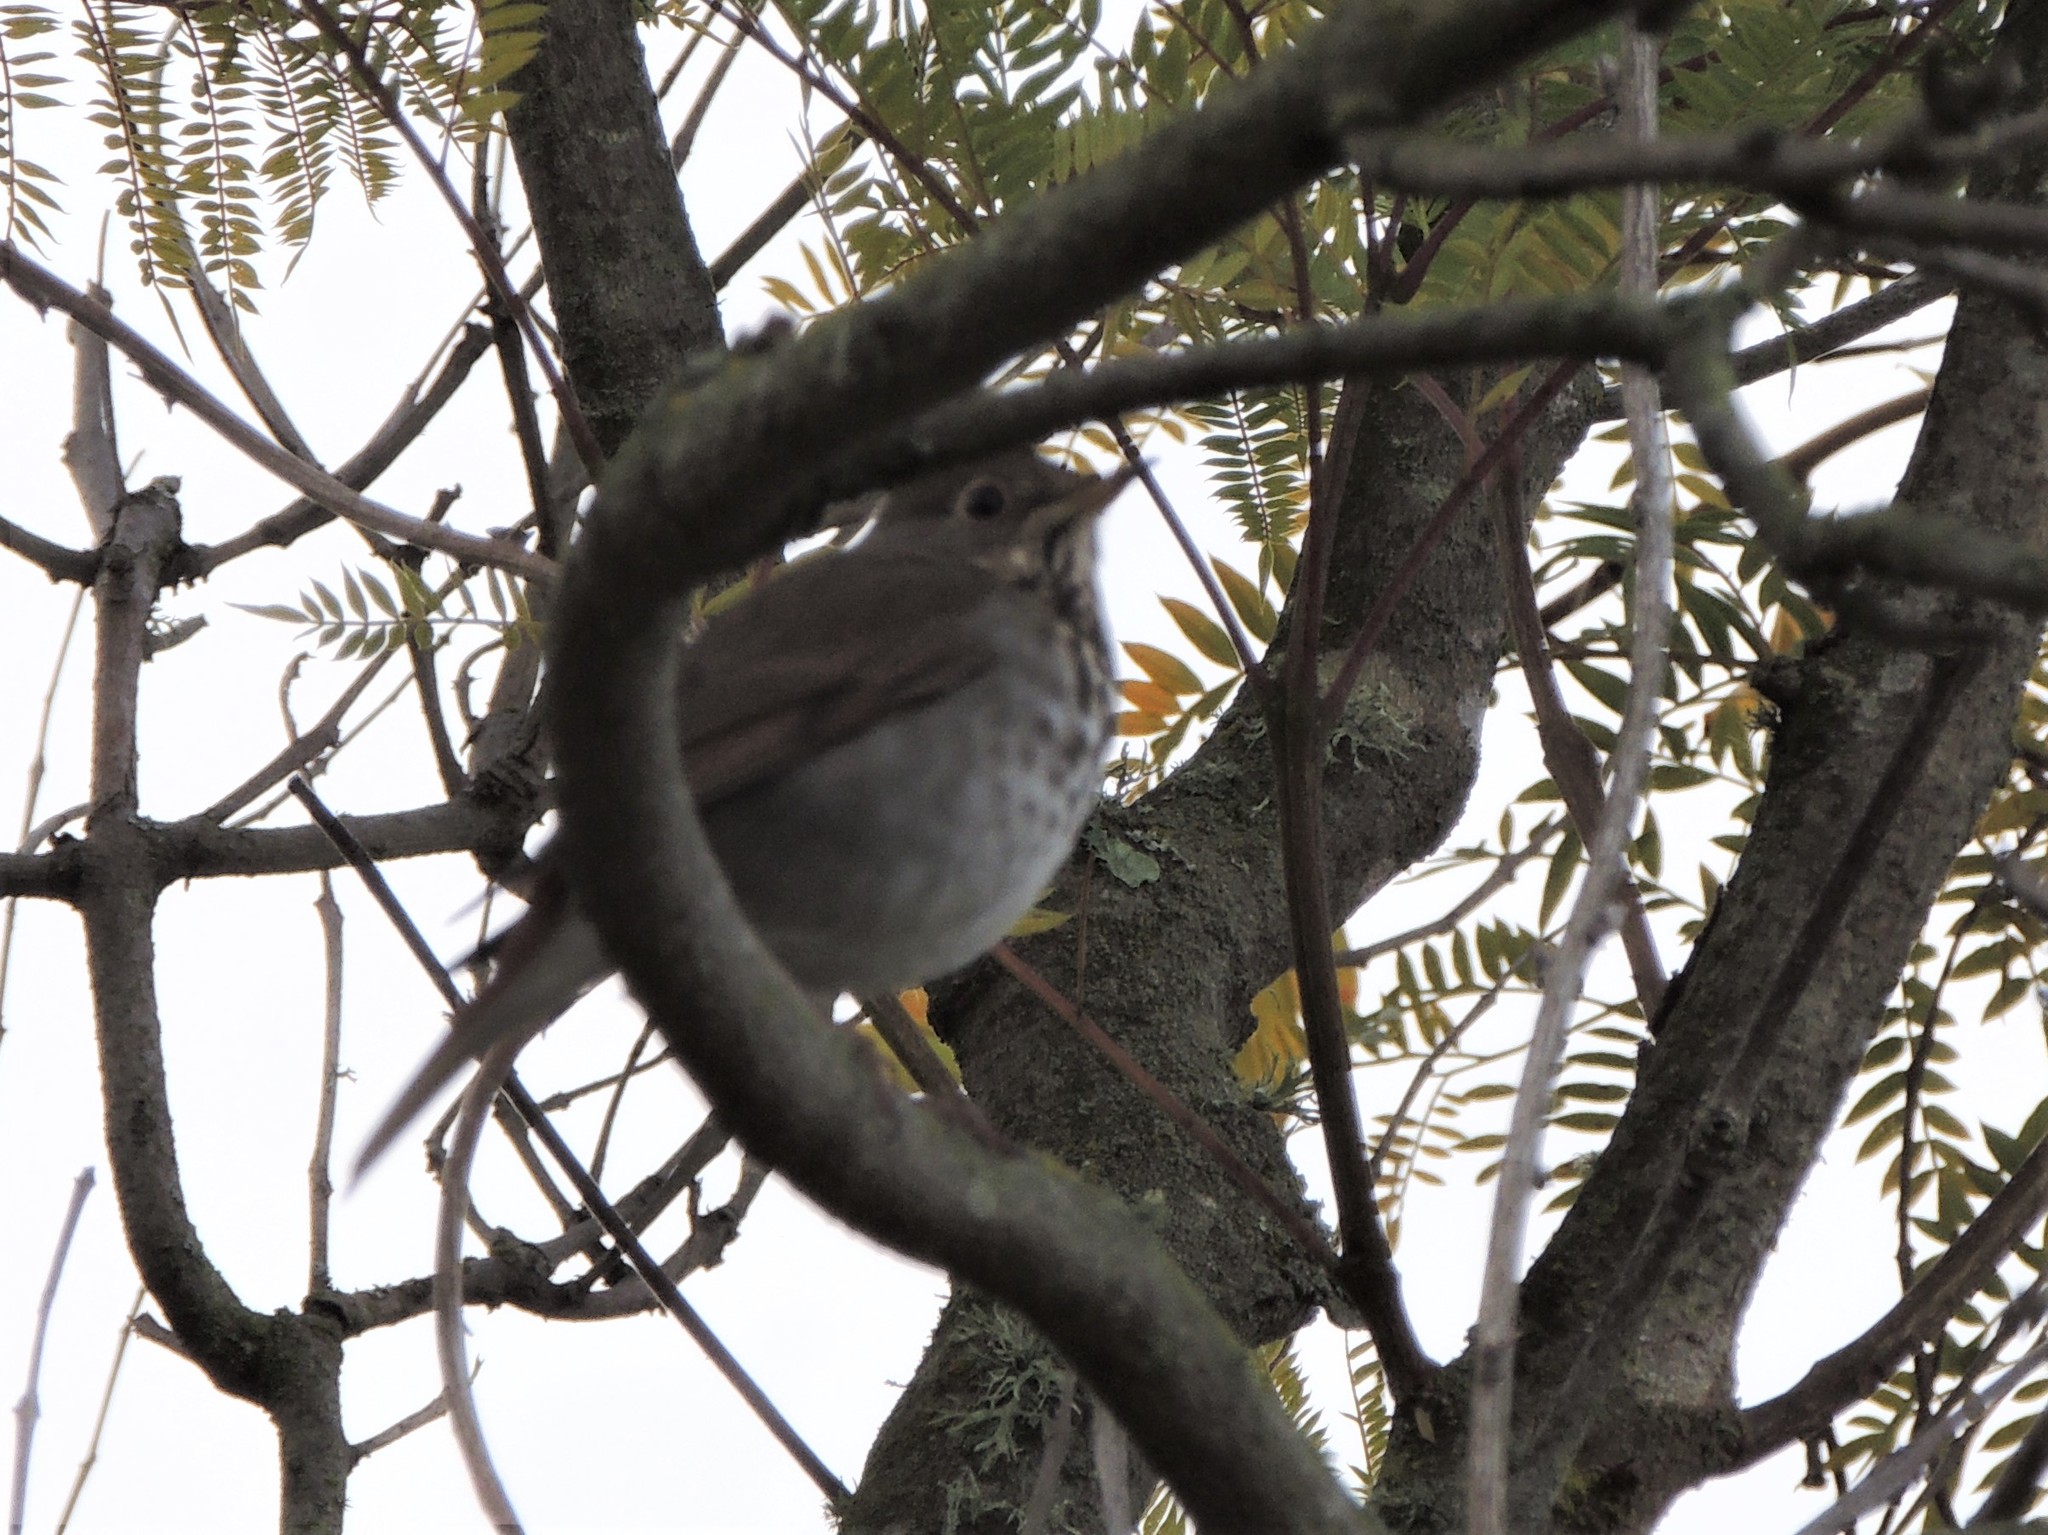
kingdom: Animalia
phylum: Chordata
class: Aves
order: Passeriformes
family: Turdidae
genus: Catharus
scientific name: Catharus guttatus
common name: Hermit thrush
